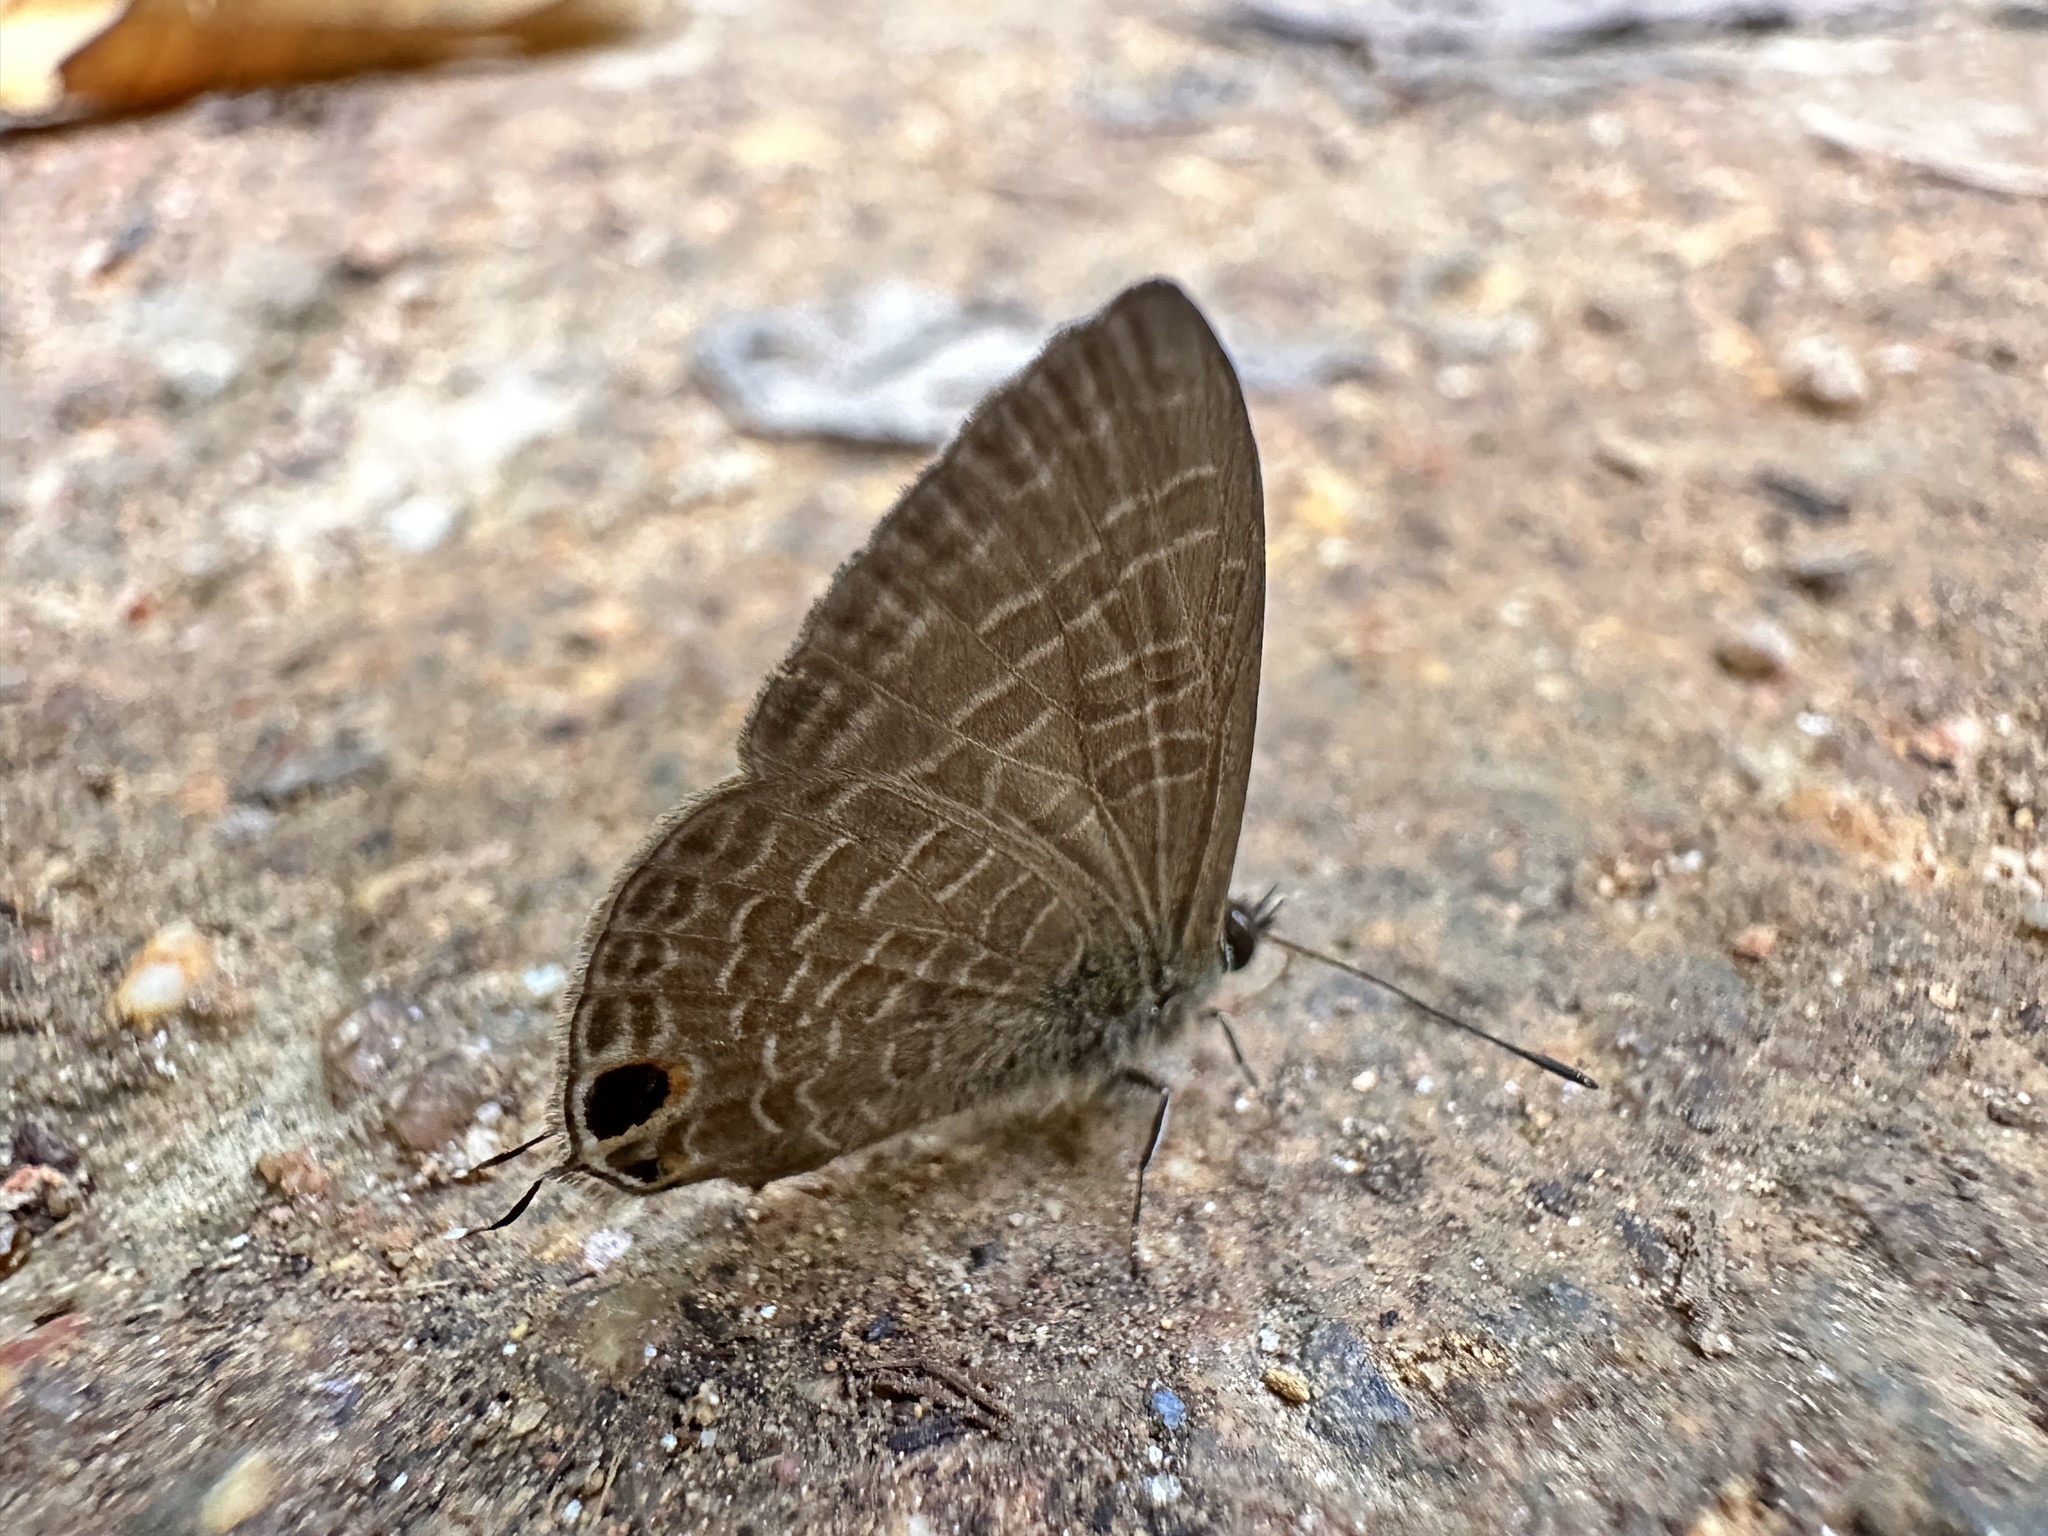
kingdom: Animalia
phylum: Arthropoda
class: Insecta
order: Lepidoptera
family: Lycaenidae
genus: Nacaduba
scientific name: Nacaduba beroe
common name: Opaque sixline blue
